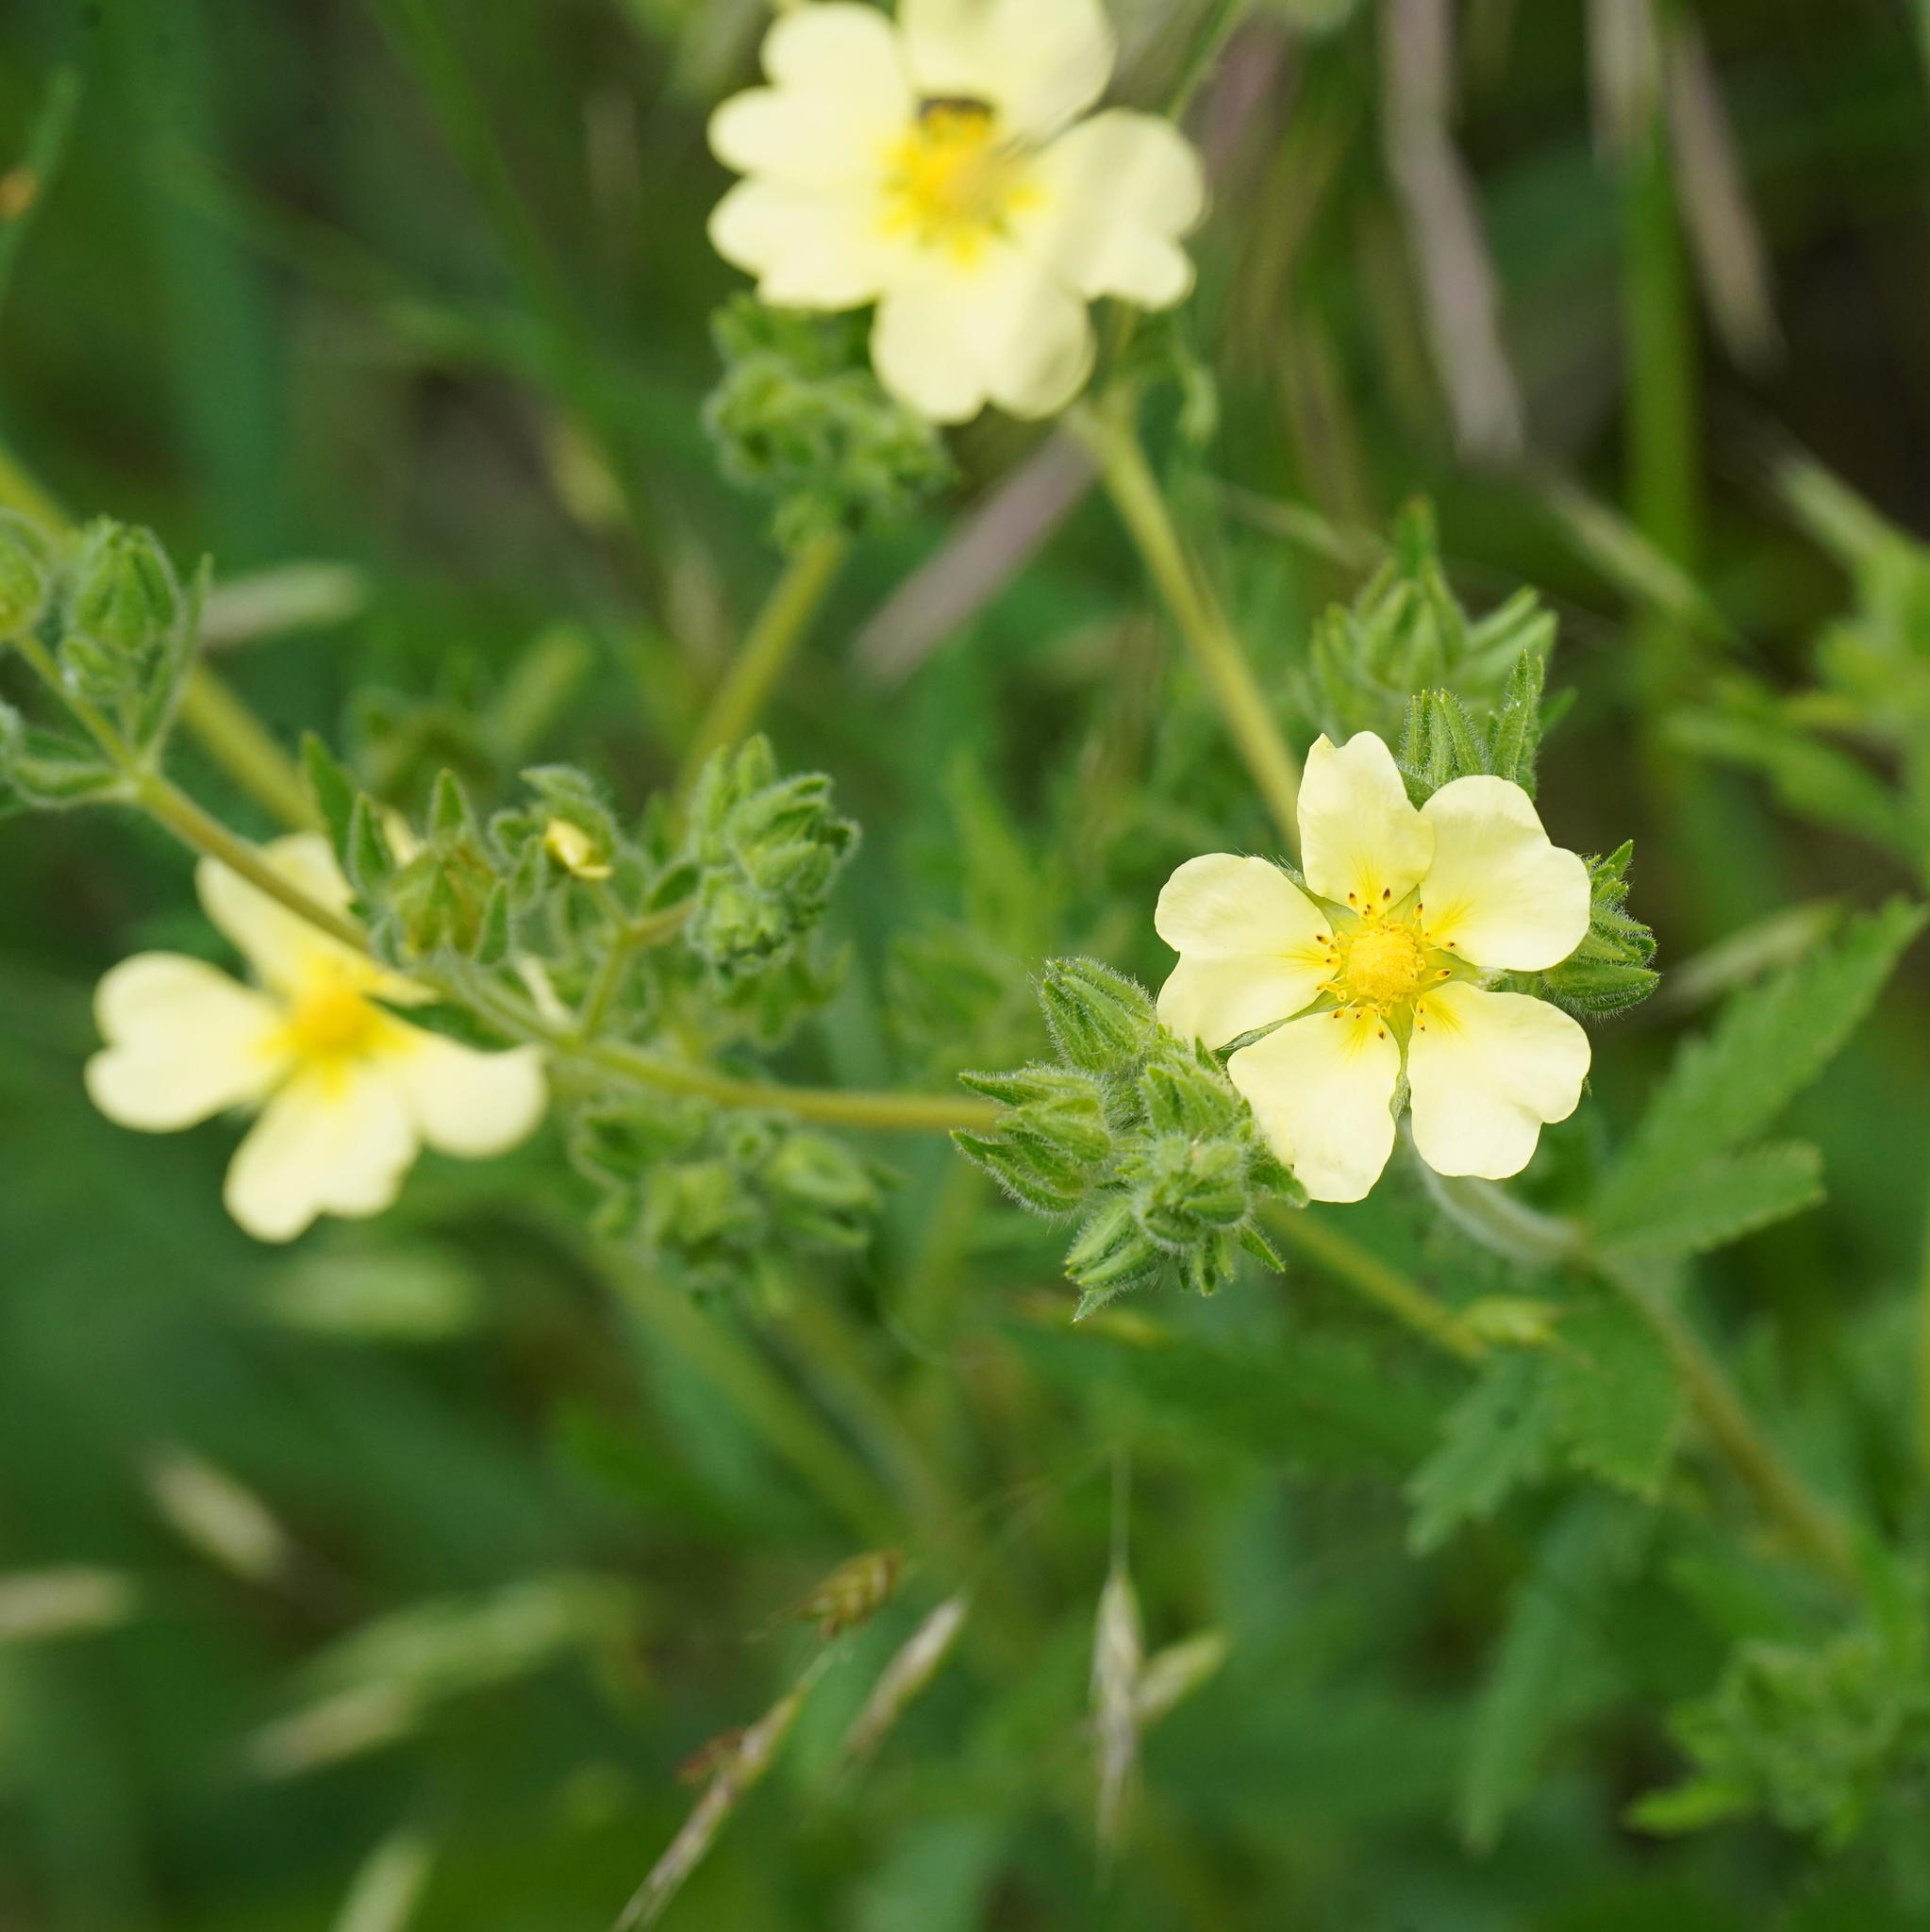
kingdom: Plantae
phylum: Tracheophyta
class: Magnoliopsida
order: Rosales
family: Rosaceae
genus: Potentilla
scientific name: Potentilla recta
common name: Sulphur cinquefoil
